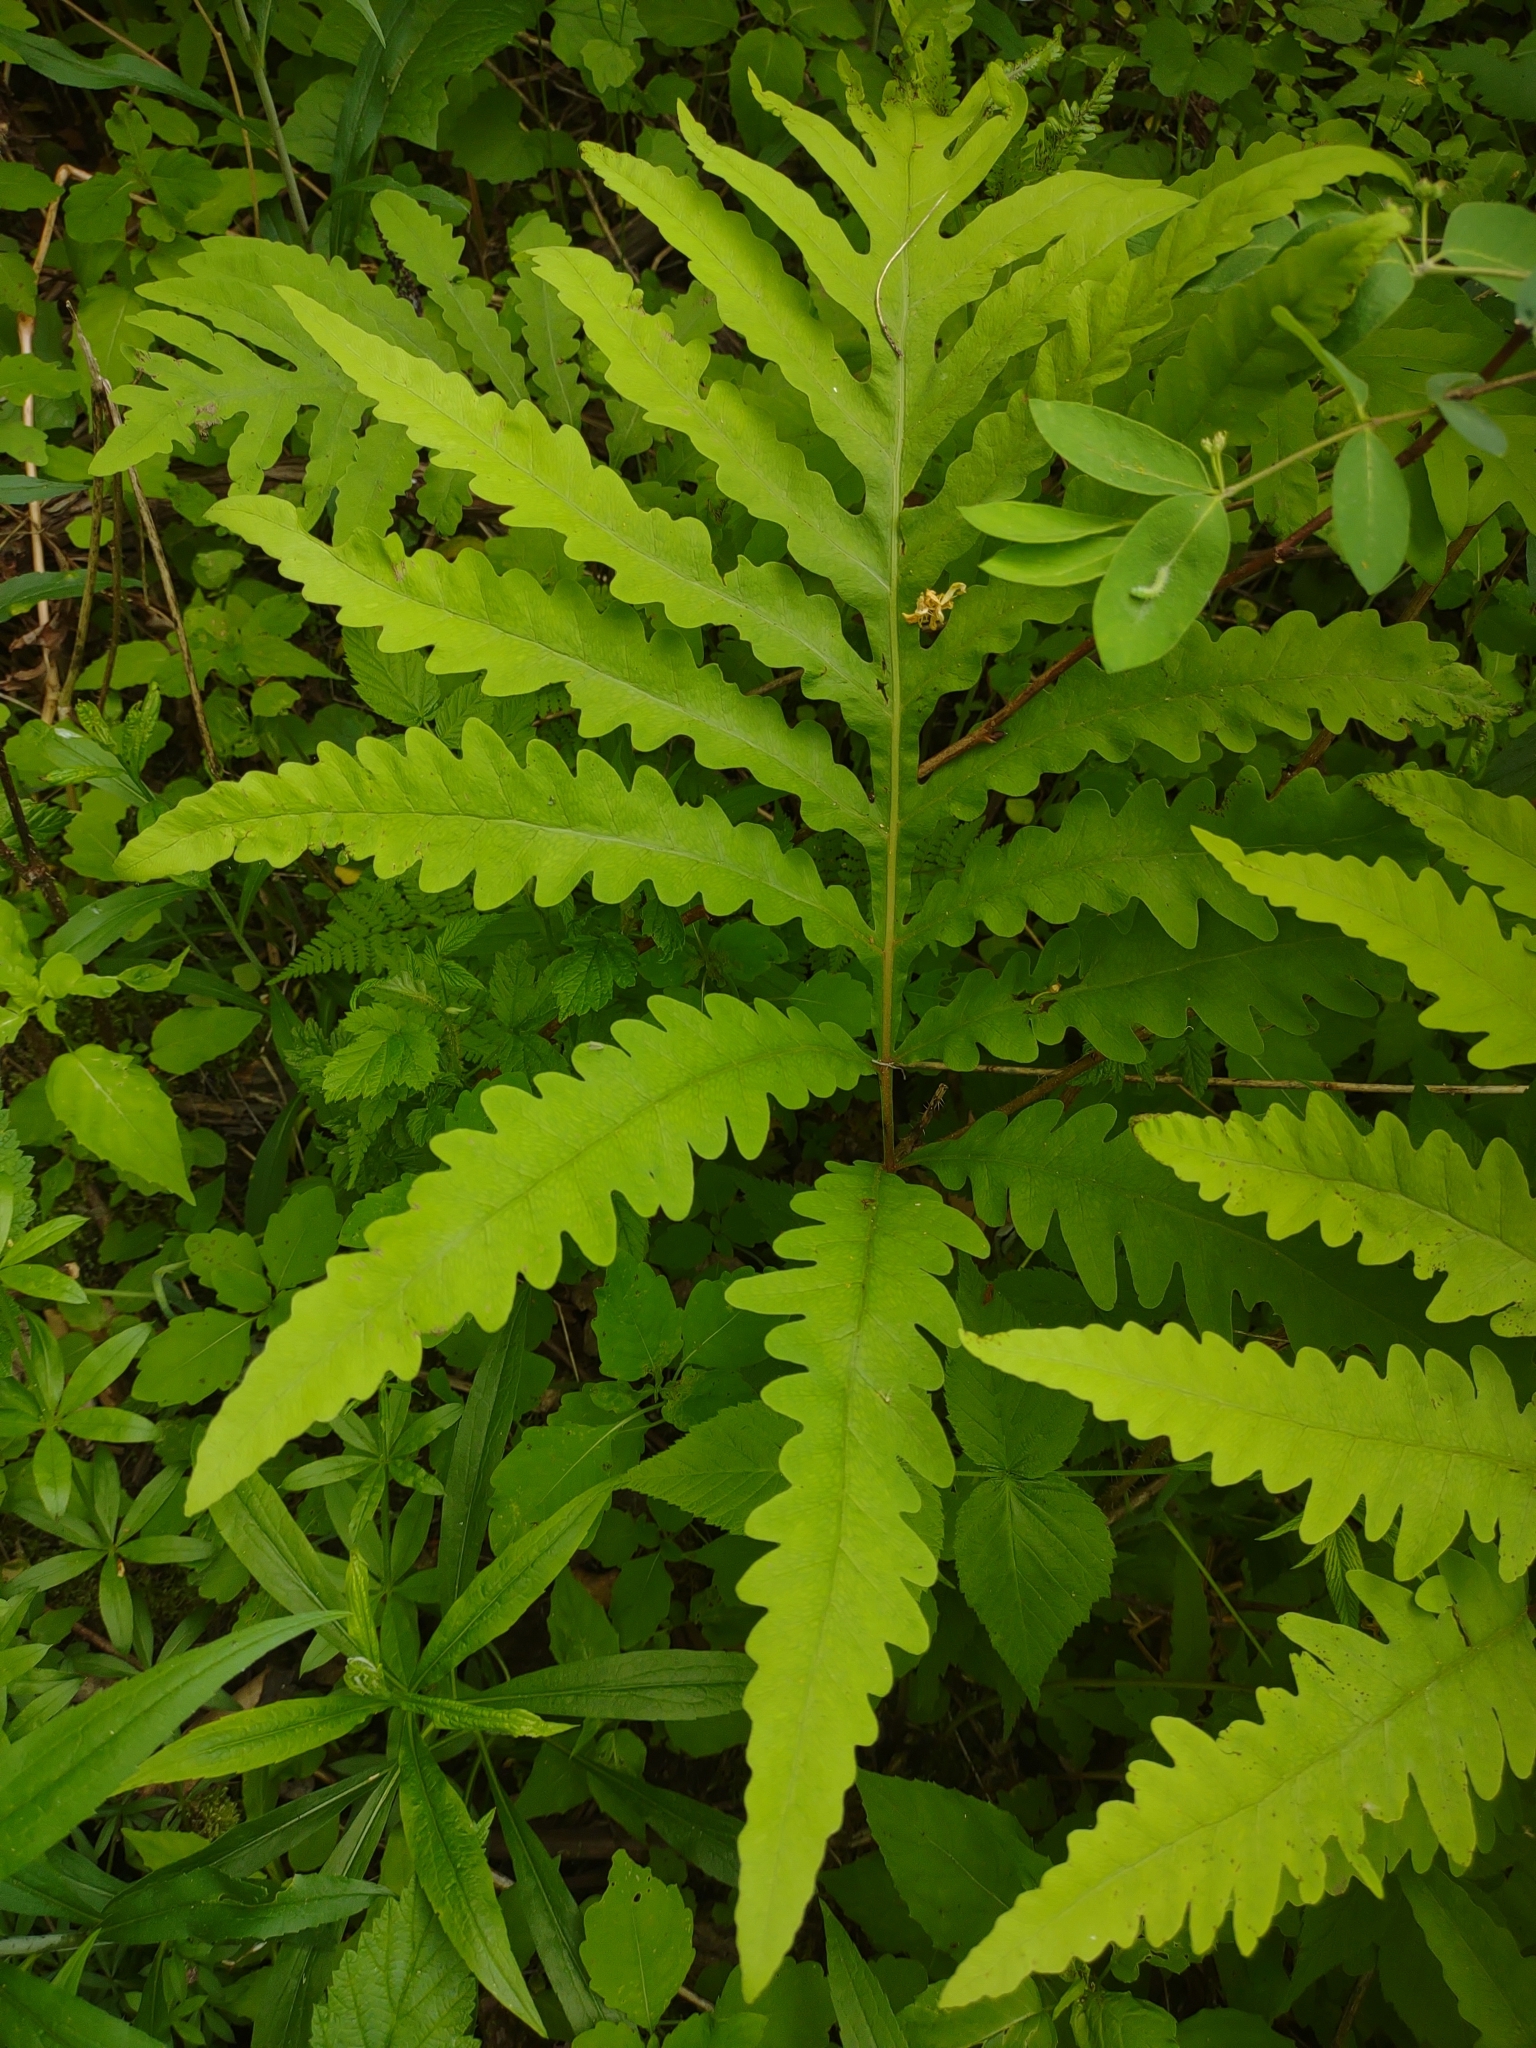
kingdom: Plantae
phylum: Tracheophyta
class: Polypodiopsida
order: Polypodiales
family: Onocleaceae
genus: Onoclea
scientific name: Onoclea sensibilis
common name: Sensitive fern
